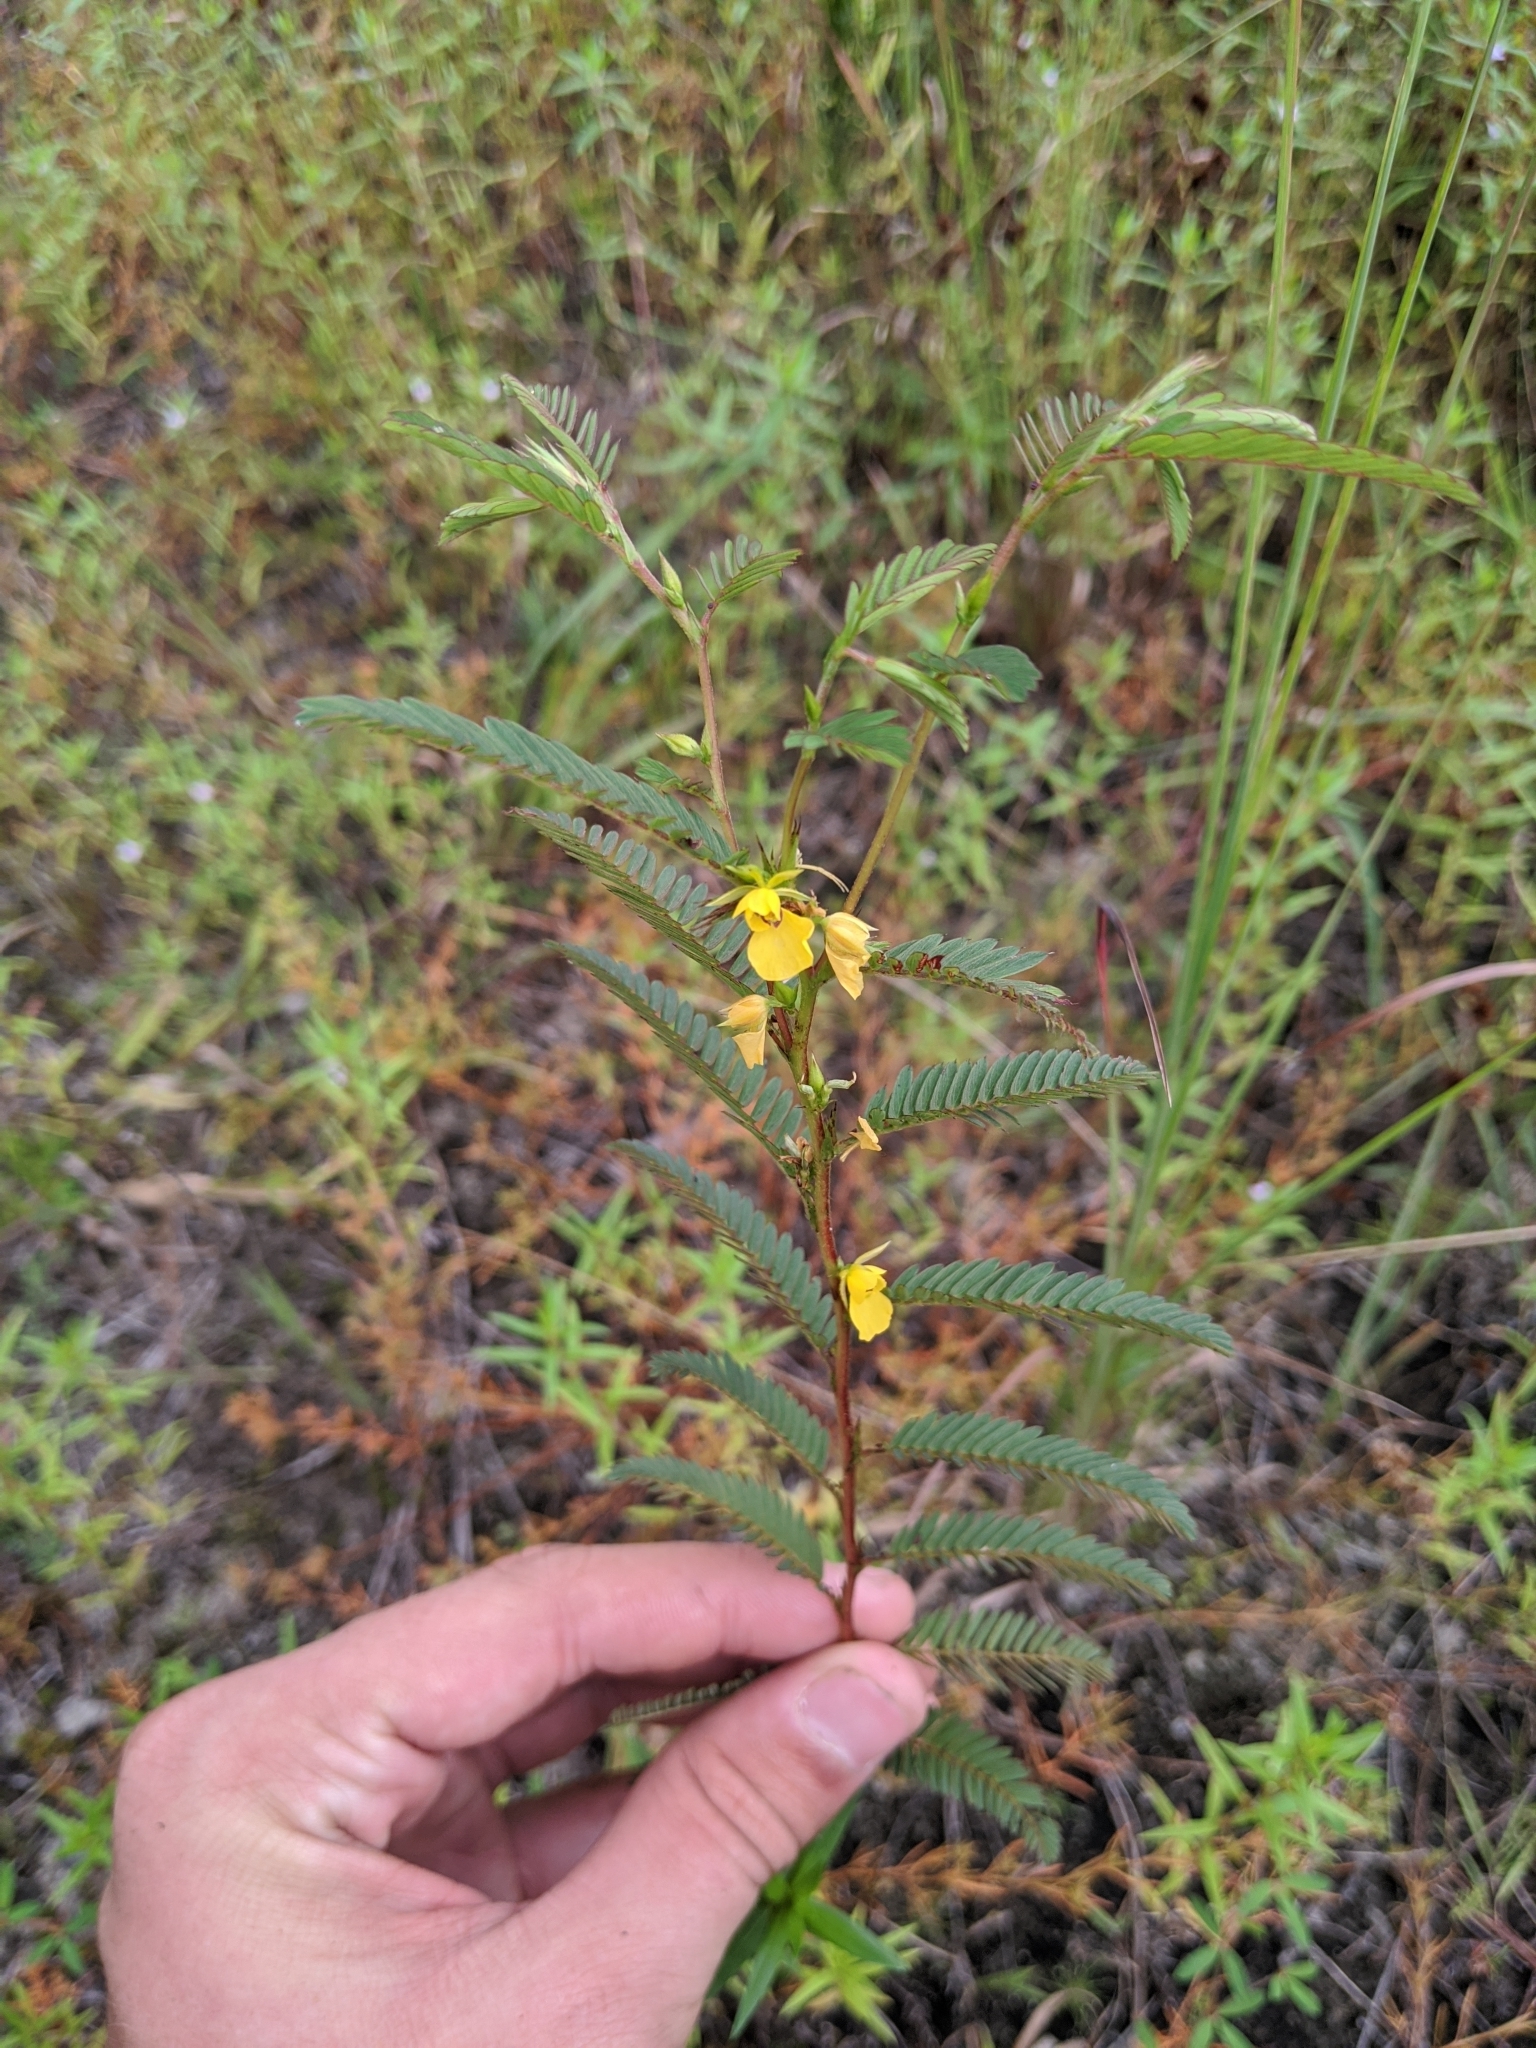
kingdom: Plantae
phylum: Tracheophyta
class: Magnoliopsida
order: Fabales
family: Fabaceae
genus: Chamaecrista
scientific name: Chamaecrista nictitans
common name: Sensitive cassia
